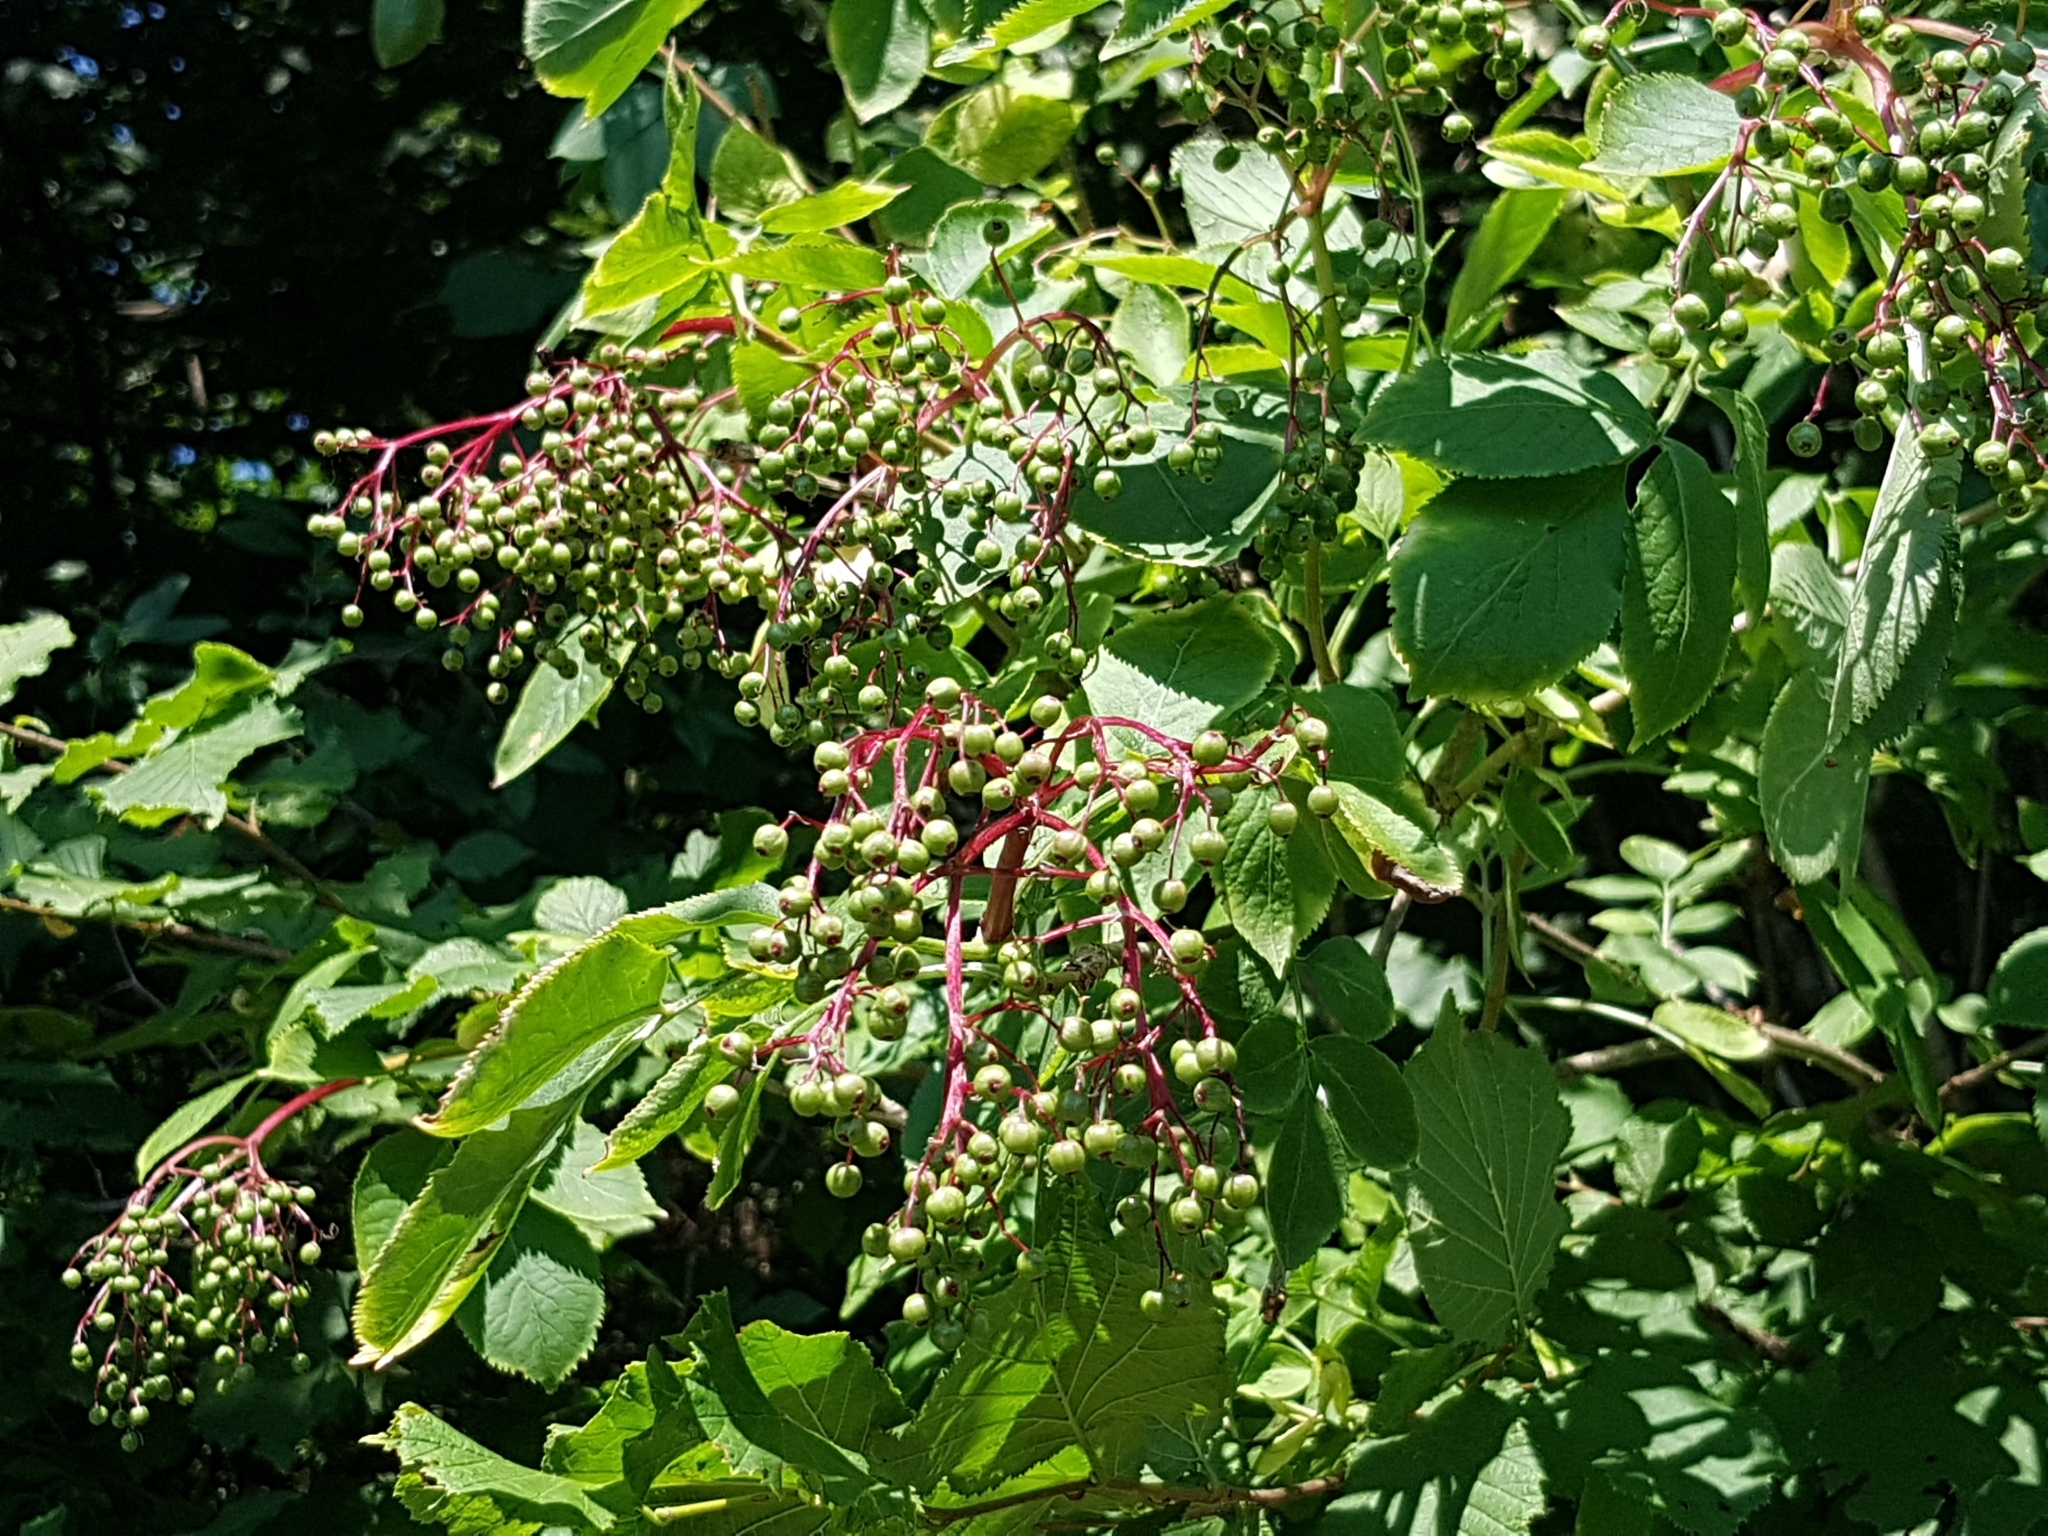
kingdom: Plantae
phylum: Tracheophyta
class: Magnoliopsida
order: Dipsacales
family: Viburnaceae
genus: Sambucus
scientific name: Sambucus nigra
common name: Elder
